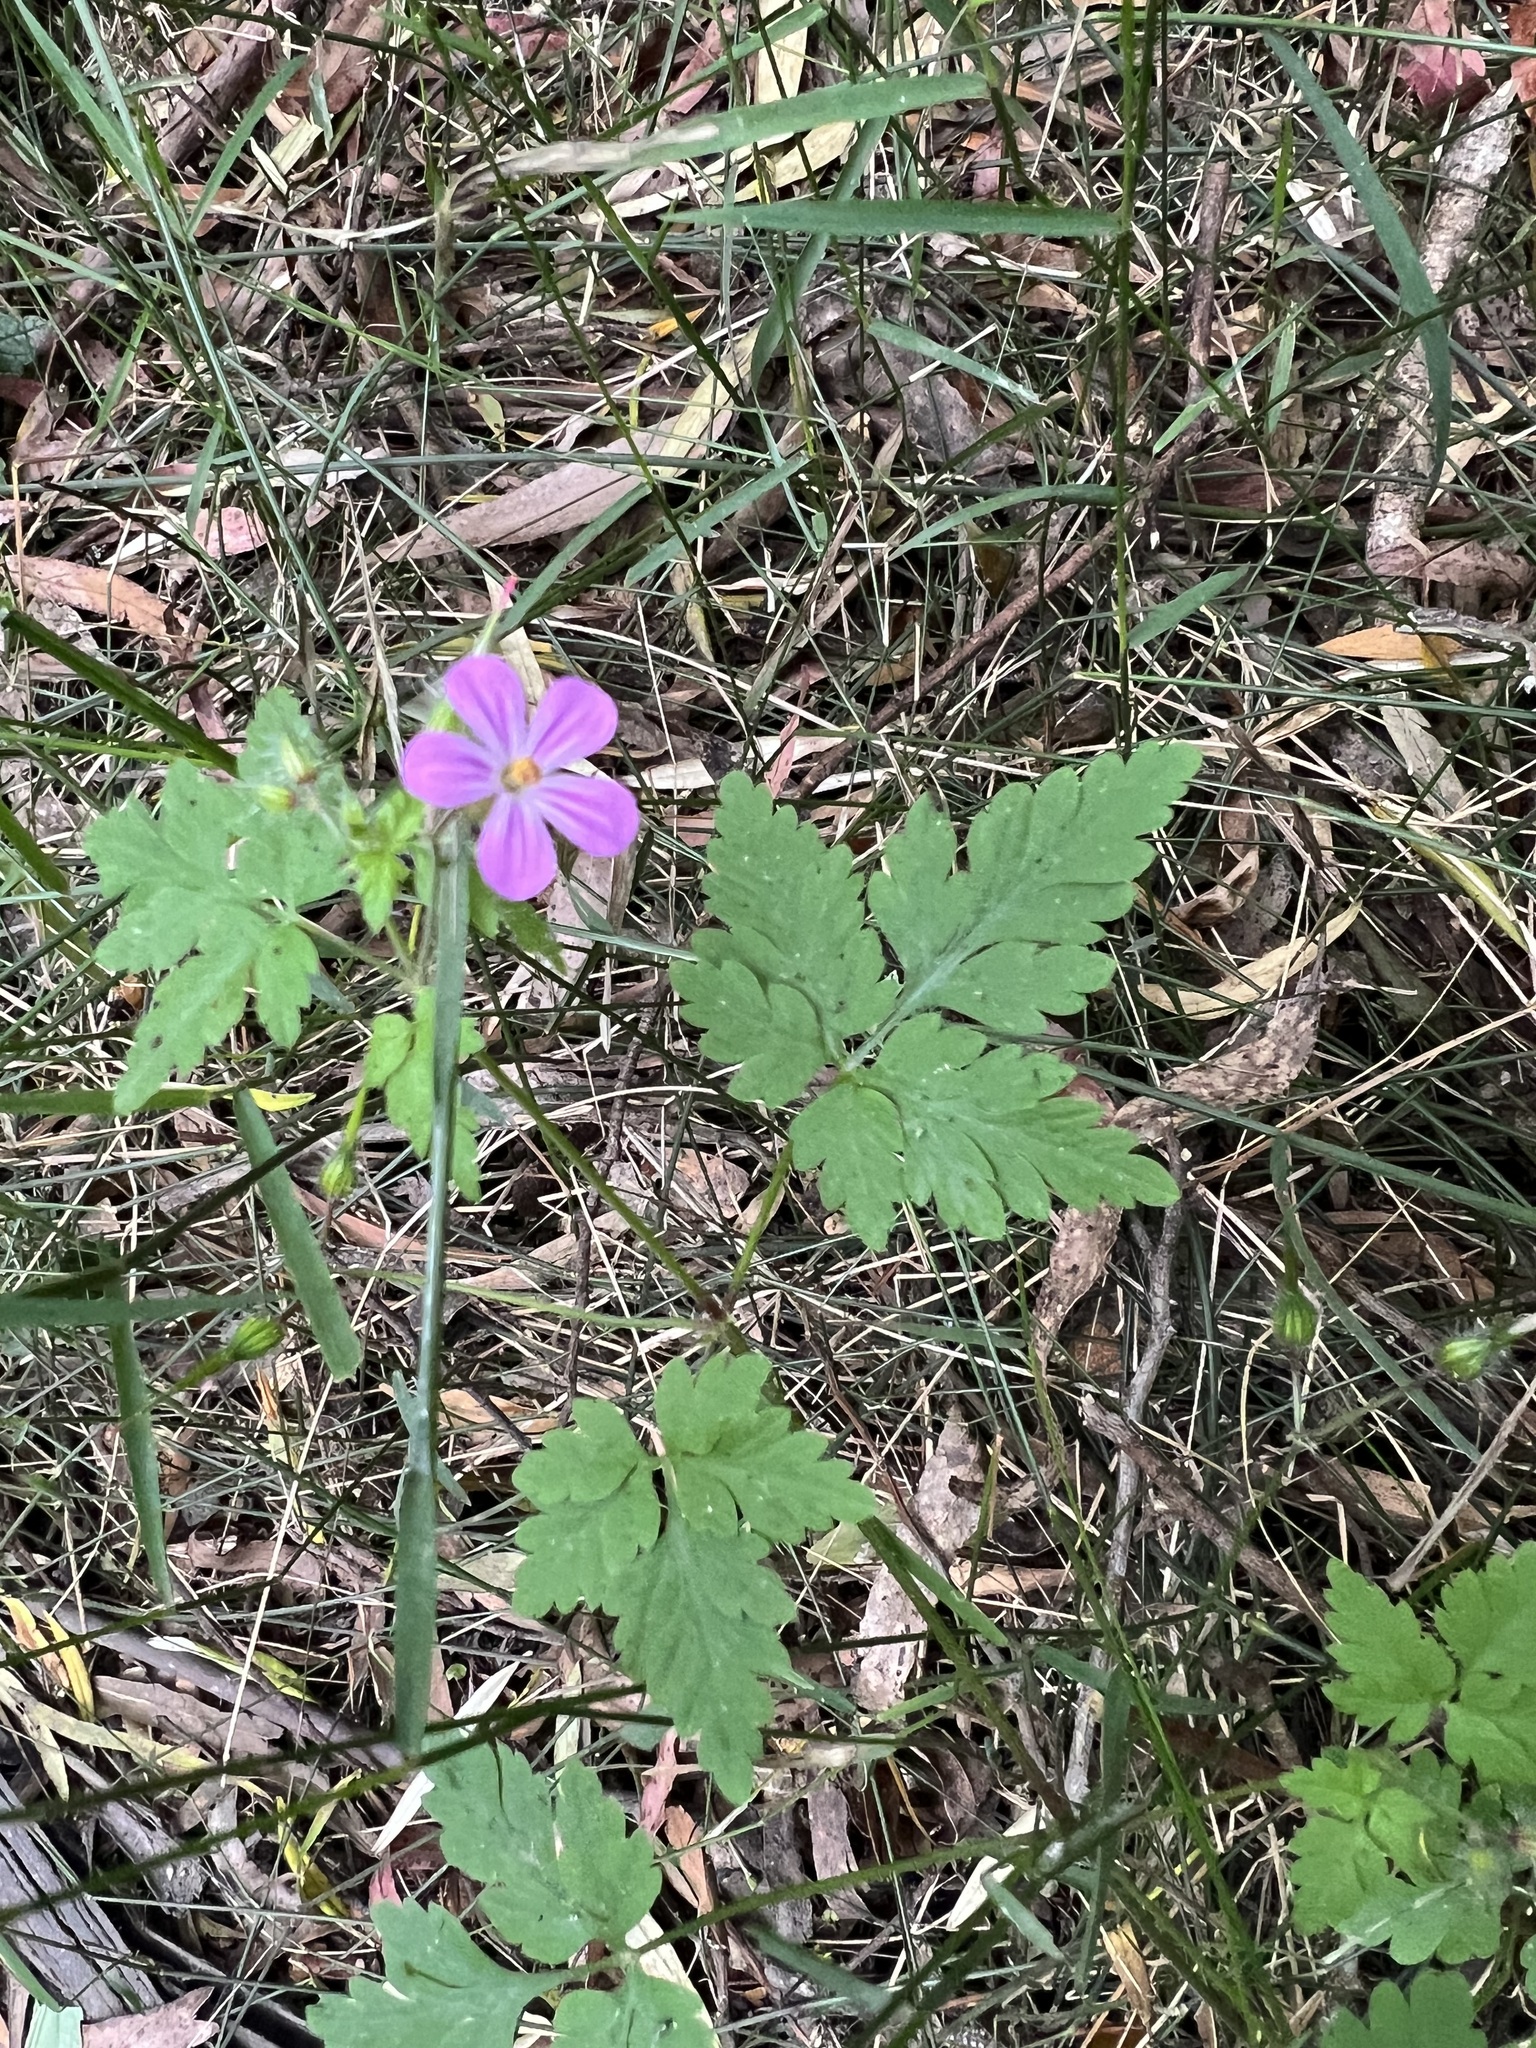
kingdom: Plantae
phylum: Tracheophyta
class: Magnoliopsida
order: Geraniales
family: Geraniaceae
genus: Geranium
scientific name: Geranium robertianum
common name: Herb-robert
